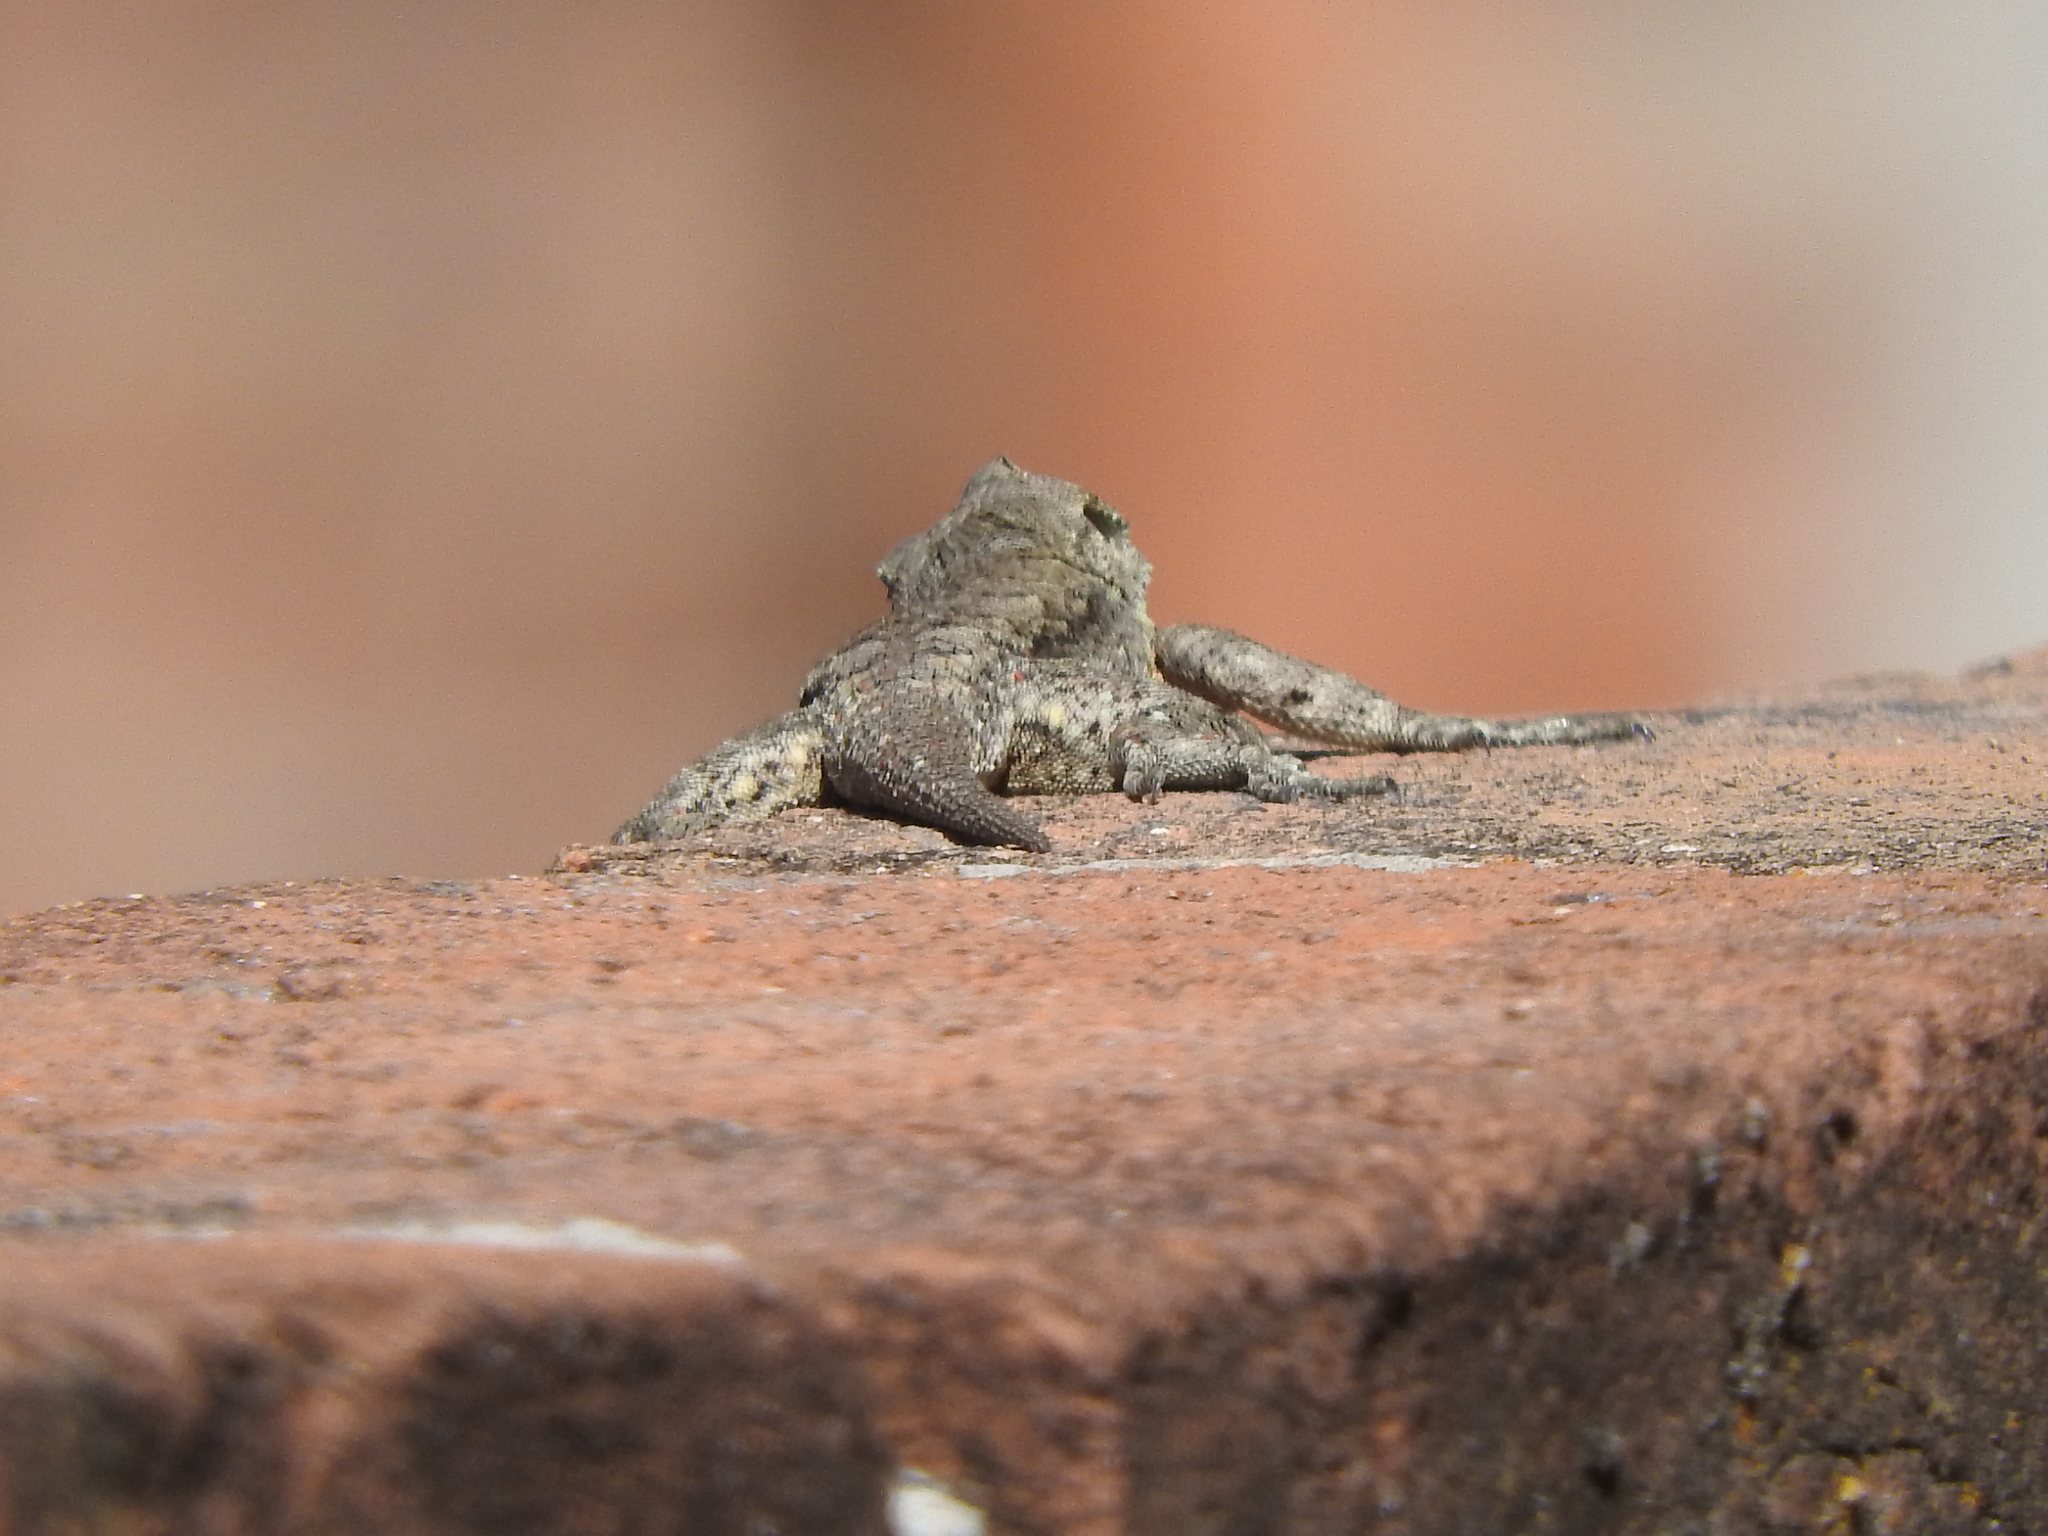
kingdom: Animalia
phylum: Chordata
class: Squamata
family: Phrynosomatidae
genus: Sceloporus
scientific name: Sceloporus grammicus
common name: Mesquite lizard
